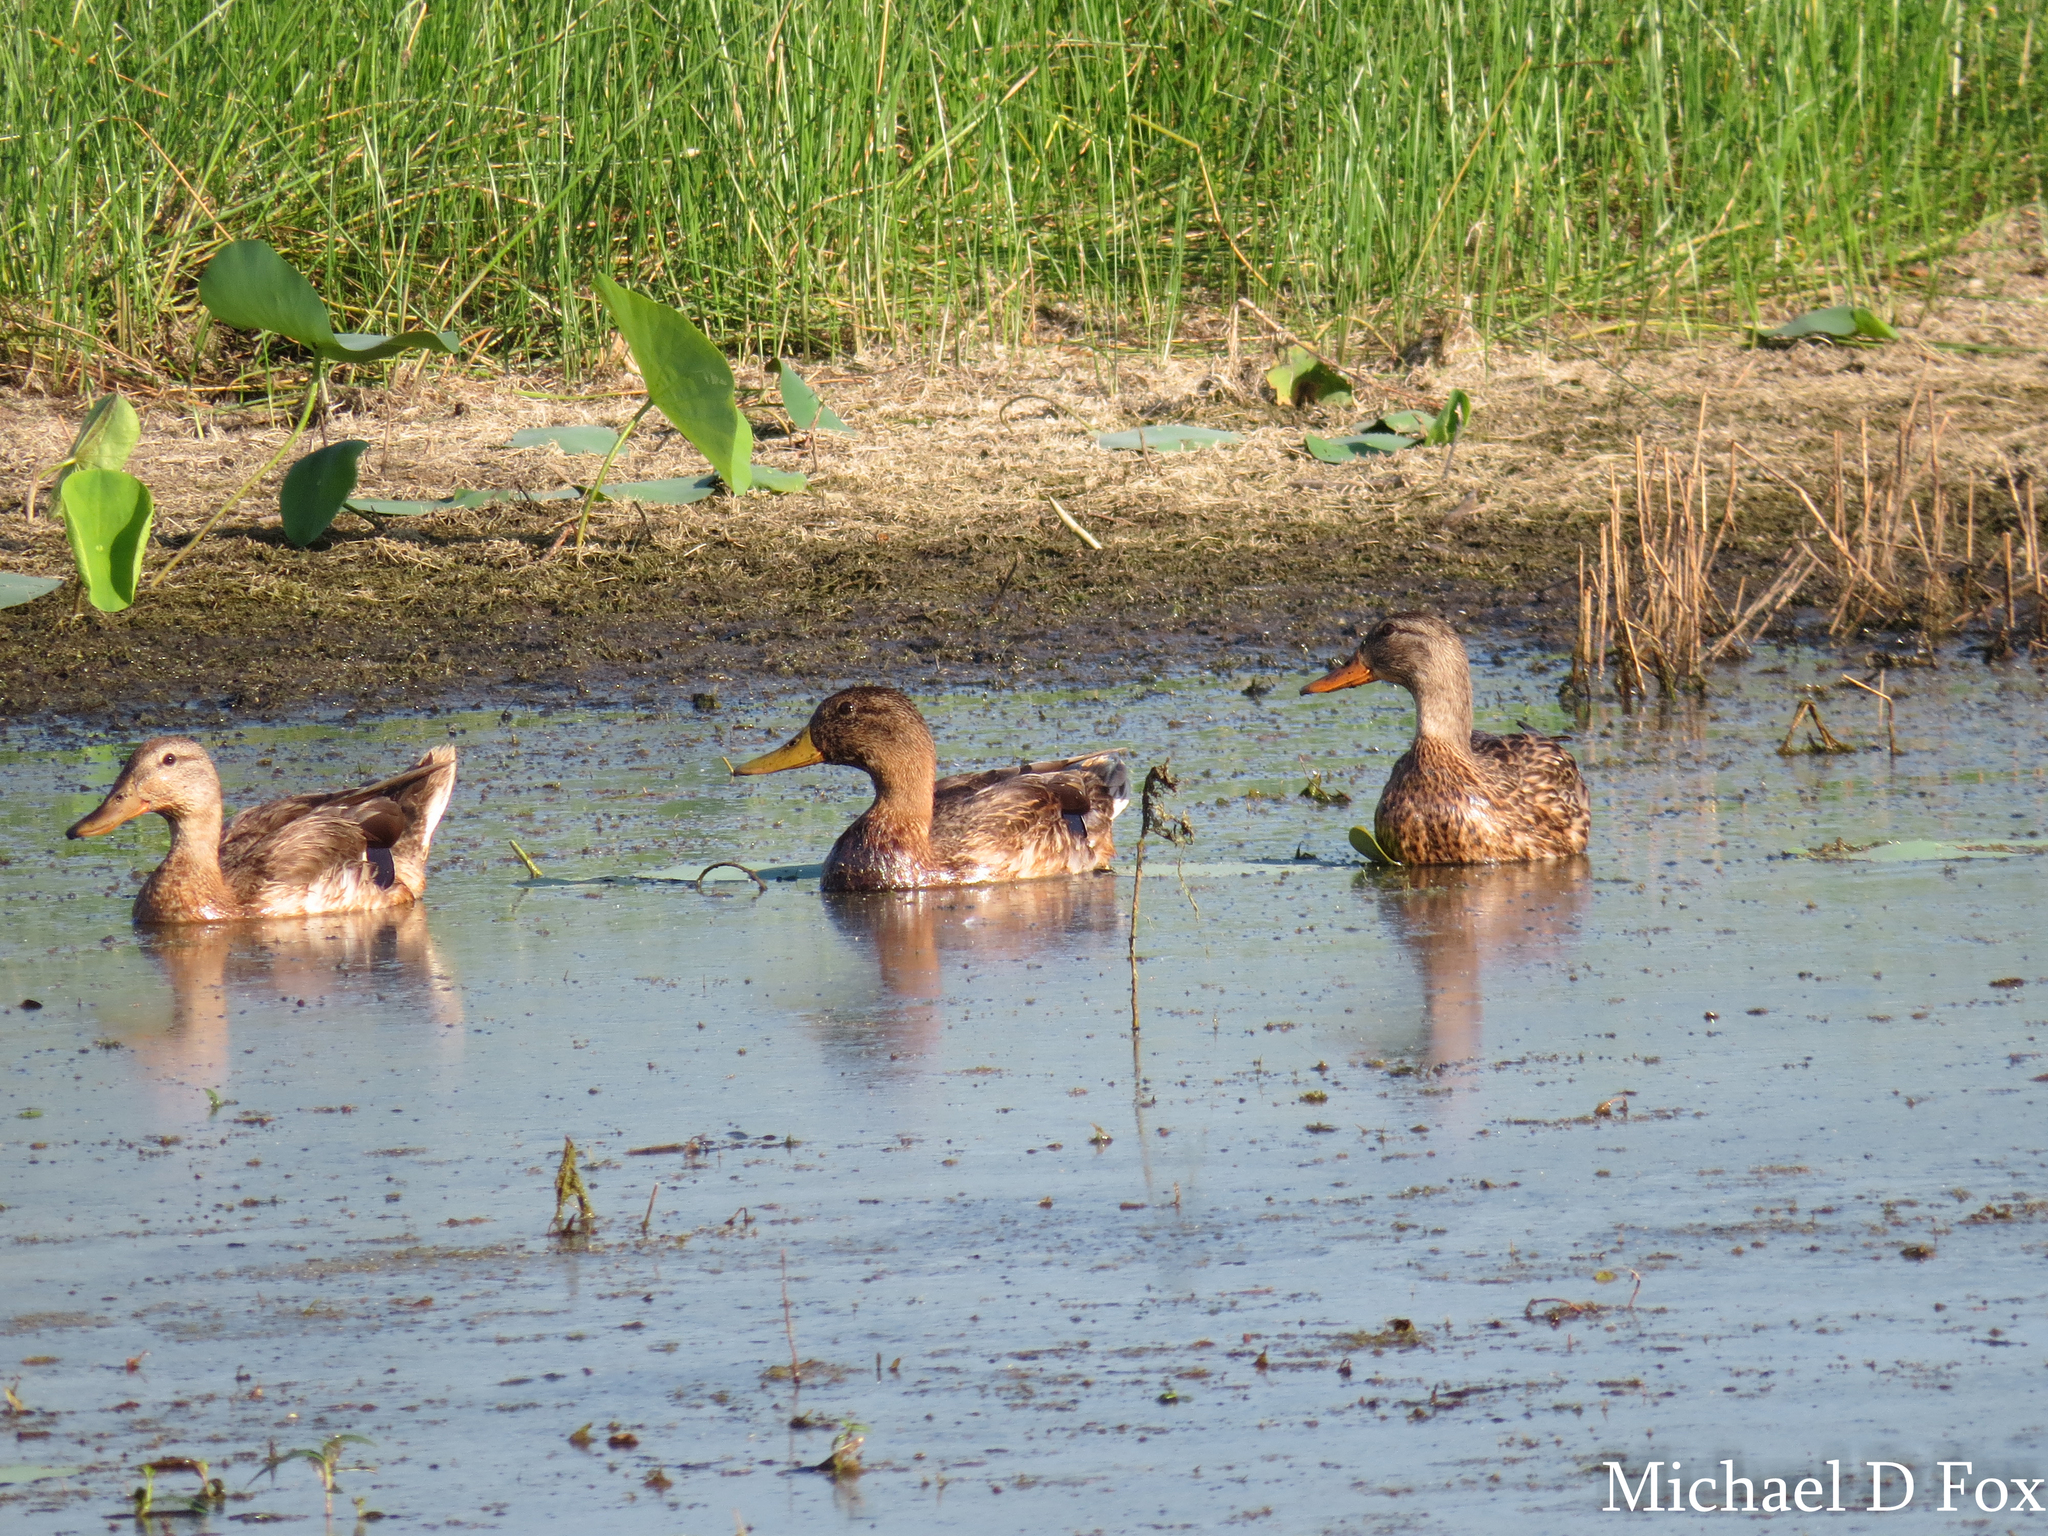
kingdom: Animalia
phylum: Chordata
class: Aves
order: Anseriformes
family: Anatidae
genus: Anas
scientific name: Anas platyrhynchos
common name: Mallard
